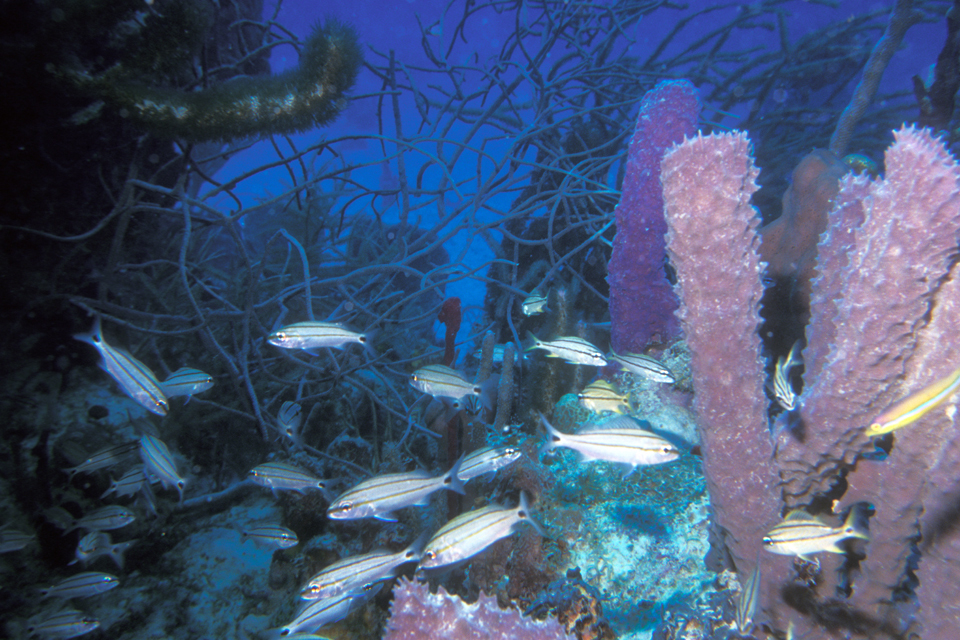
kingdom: Animalia
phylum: Chordata
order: Perciformes
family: Haemulidae
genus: Haemulon
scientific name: Haemulon flavolineatum
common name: French grunt
